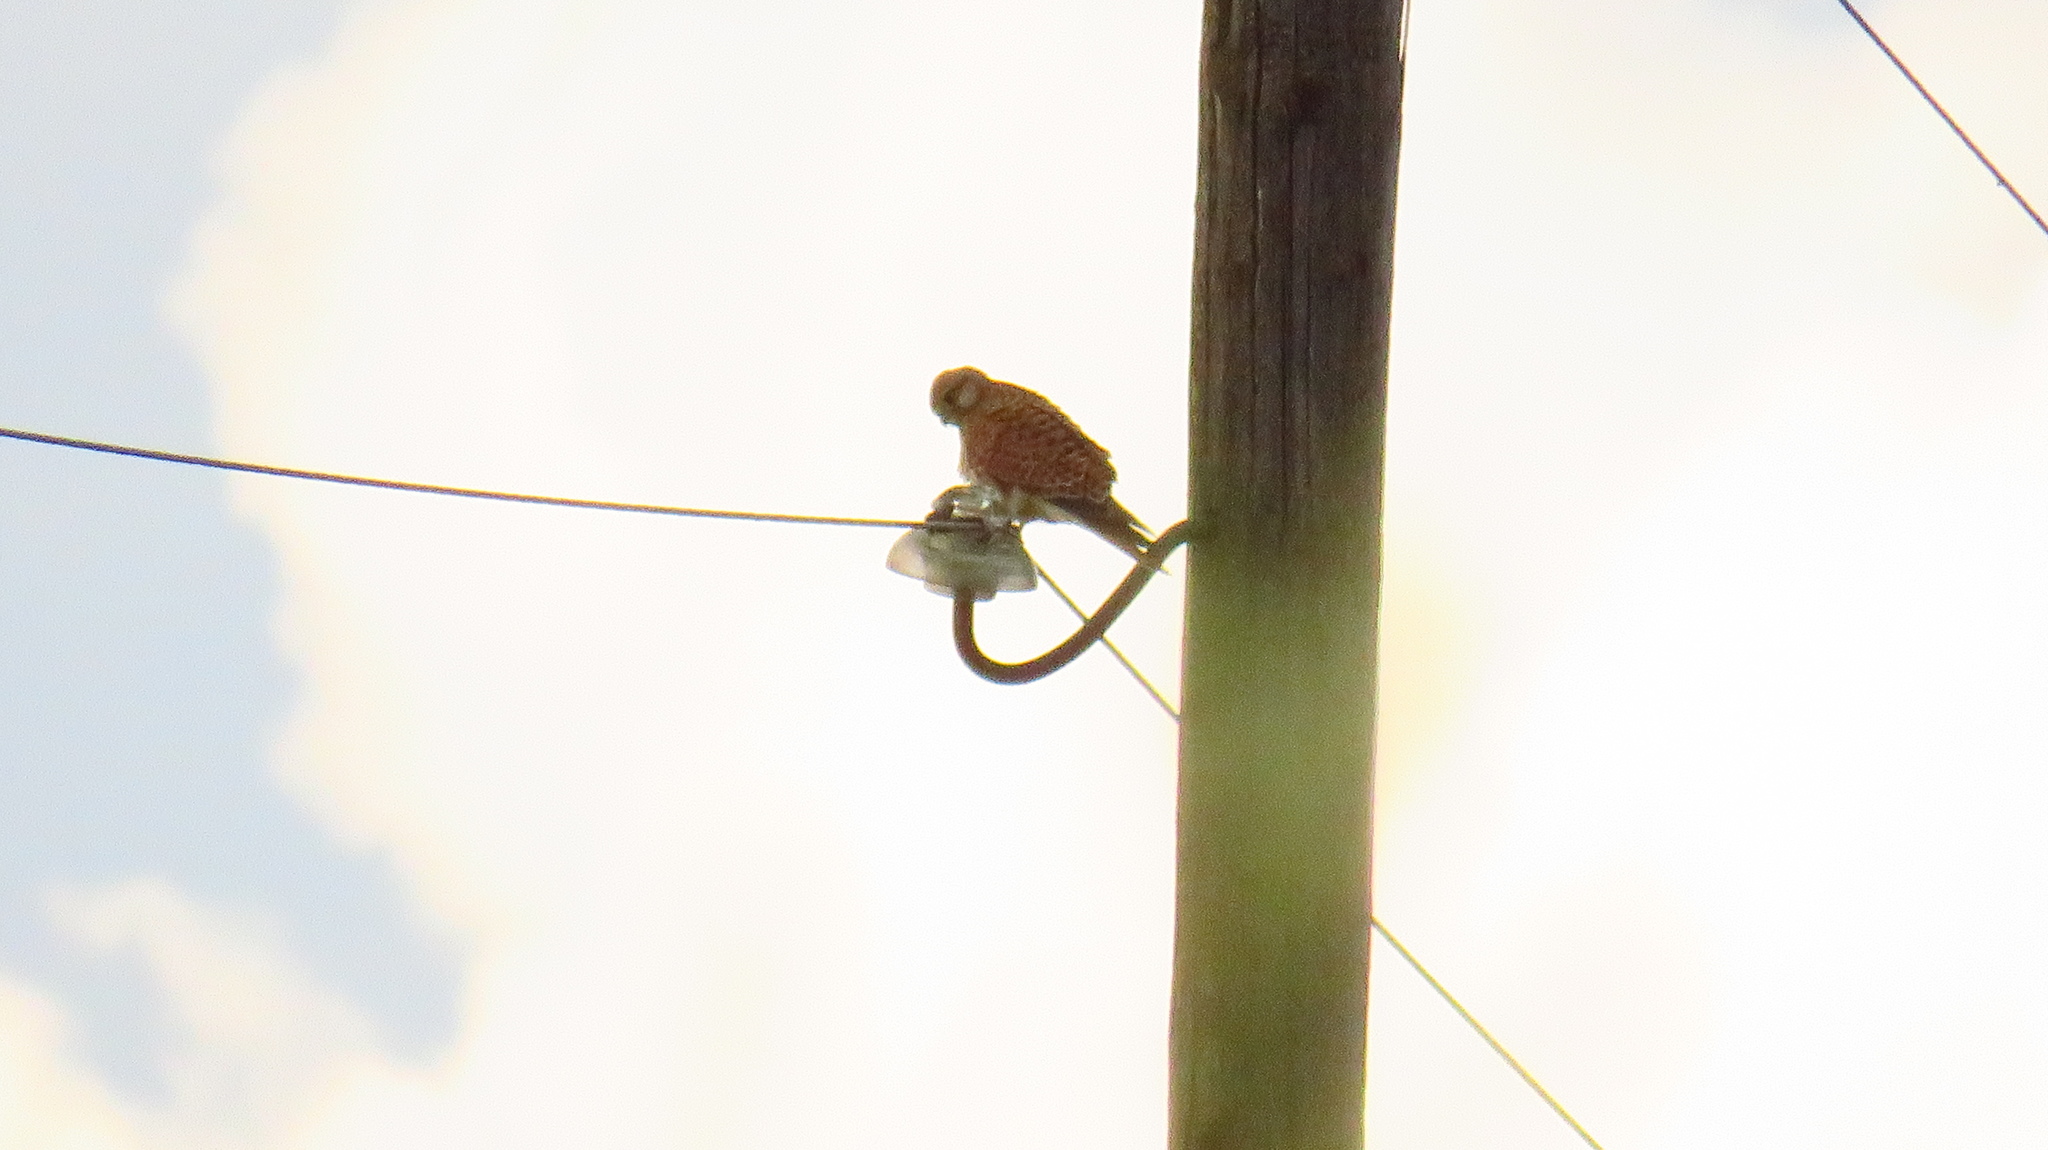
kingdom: Animalia
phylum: Chordata
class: Aves
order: Falconiformes
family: Falconidae
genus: Falco
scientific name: Falco tinnunculus
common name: Common kestrel
